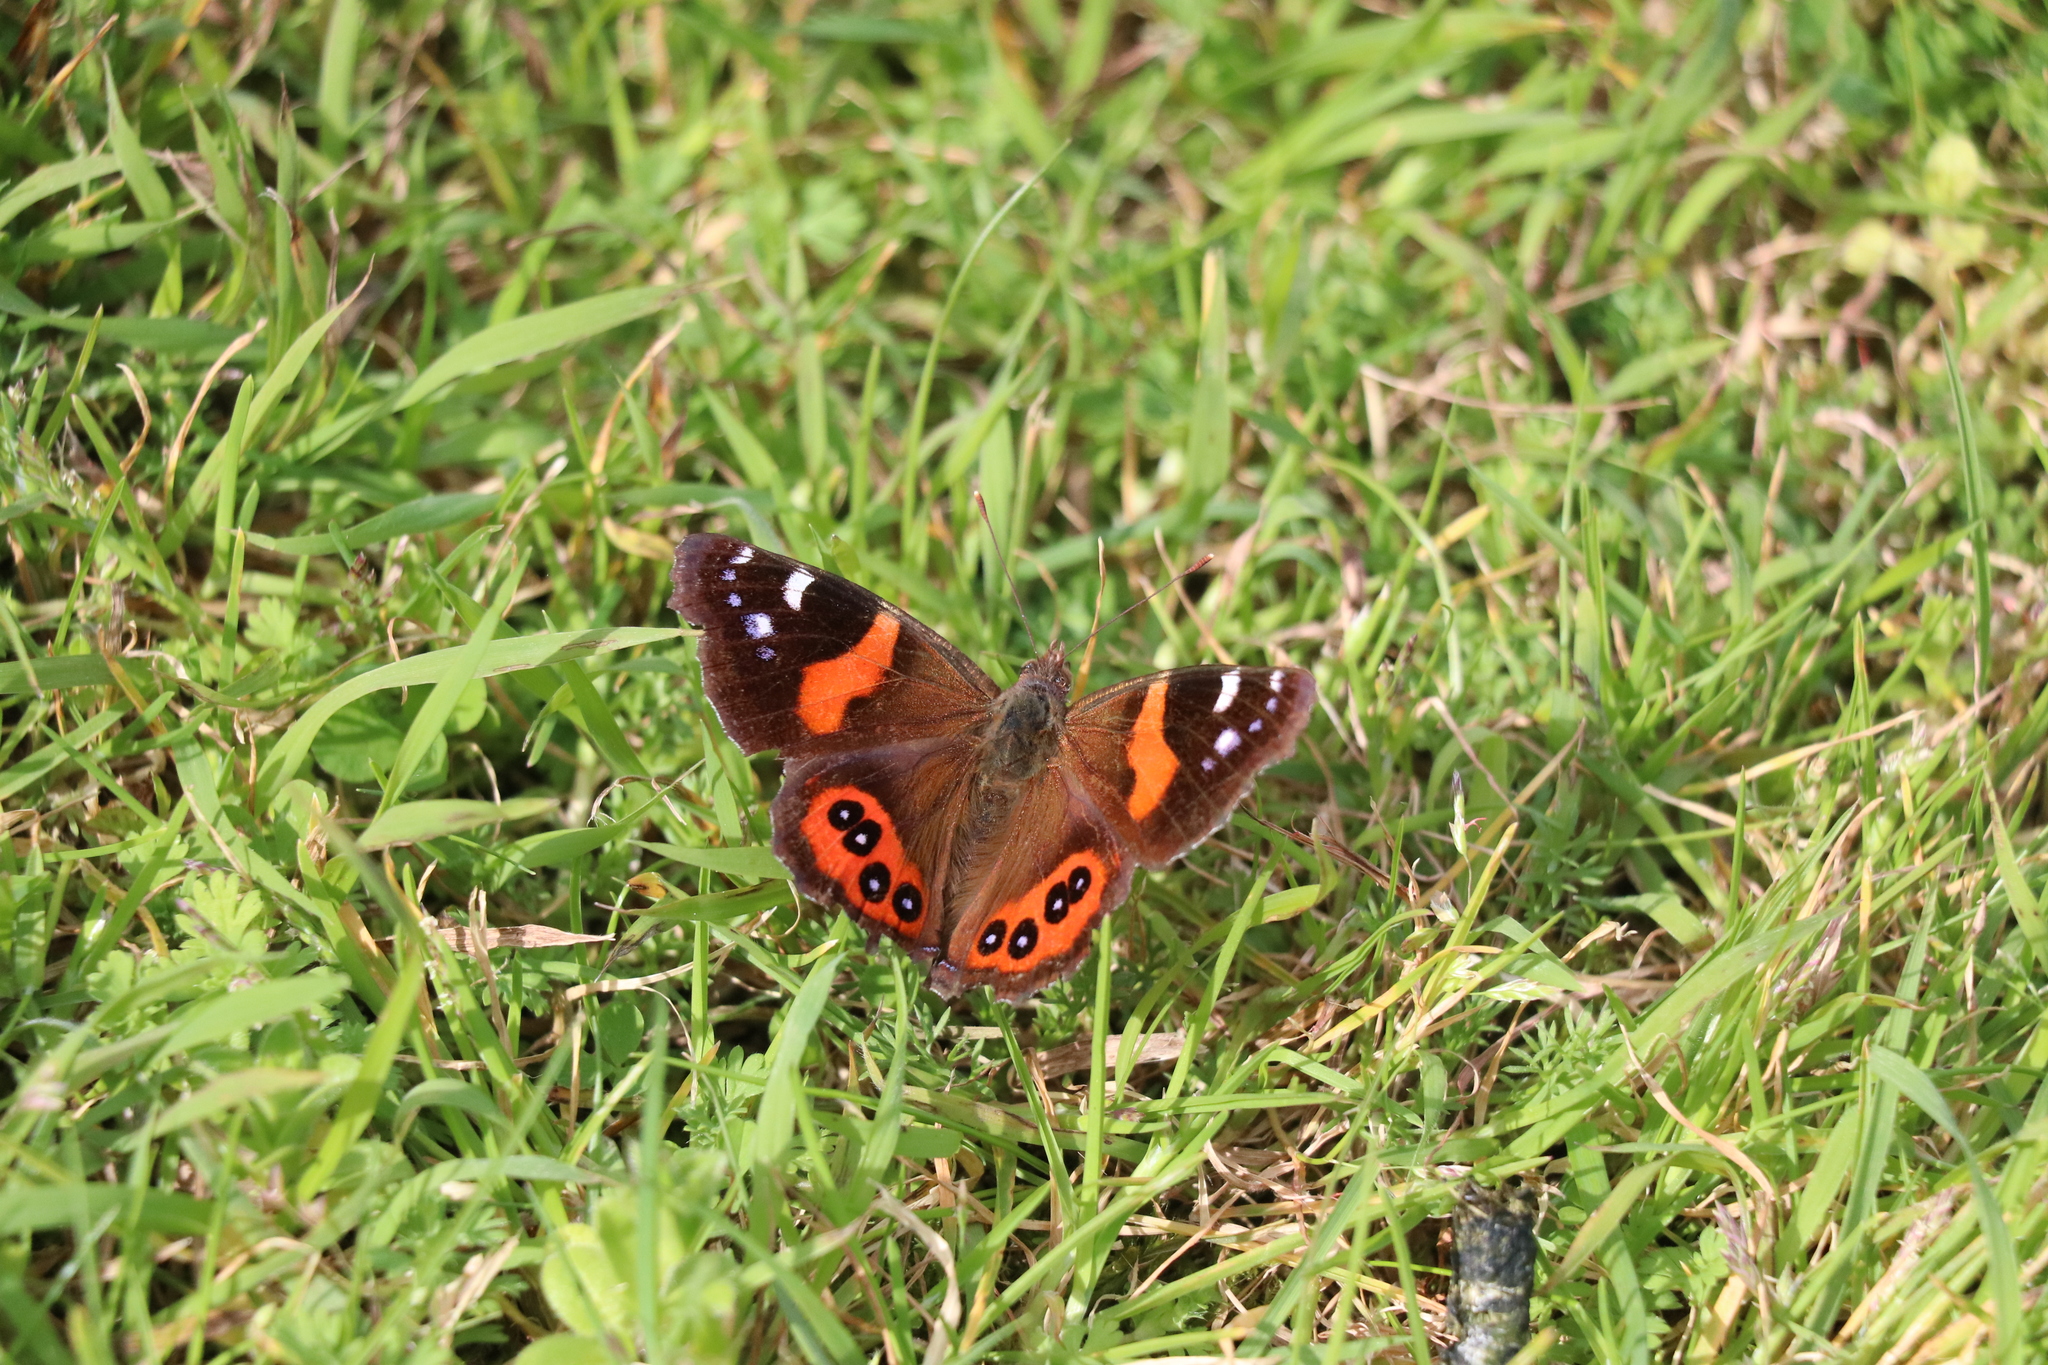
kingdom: Animalia
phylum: Arthropoda
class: Insecta
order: Lepidoptera
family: Nymphalidae
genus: Vanessa
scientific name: Vanessa gonerilla
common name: New zealand red admiral
